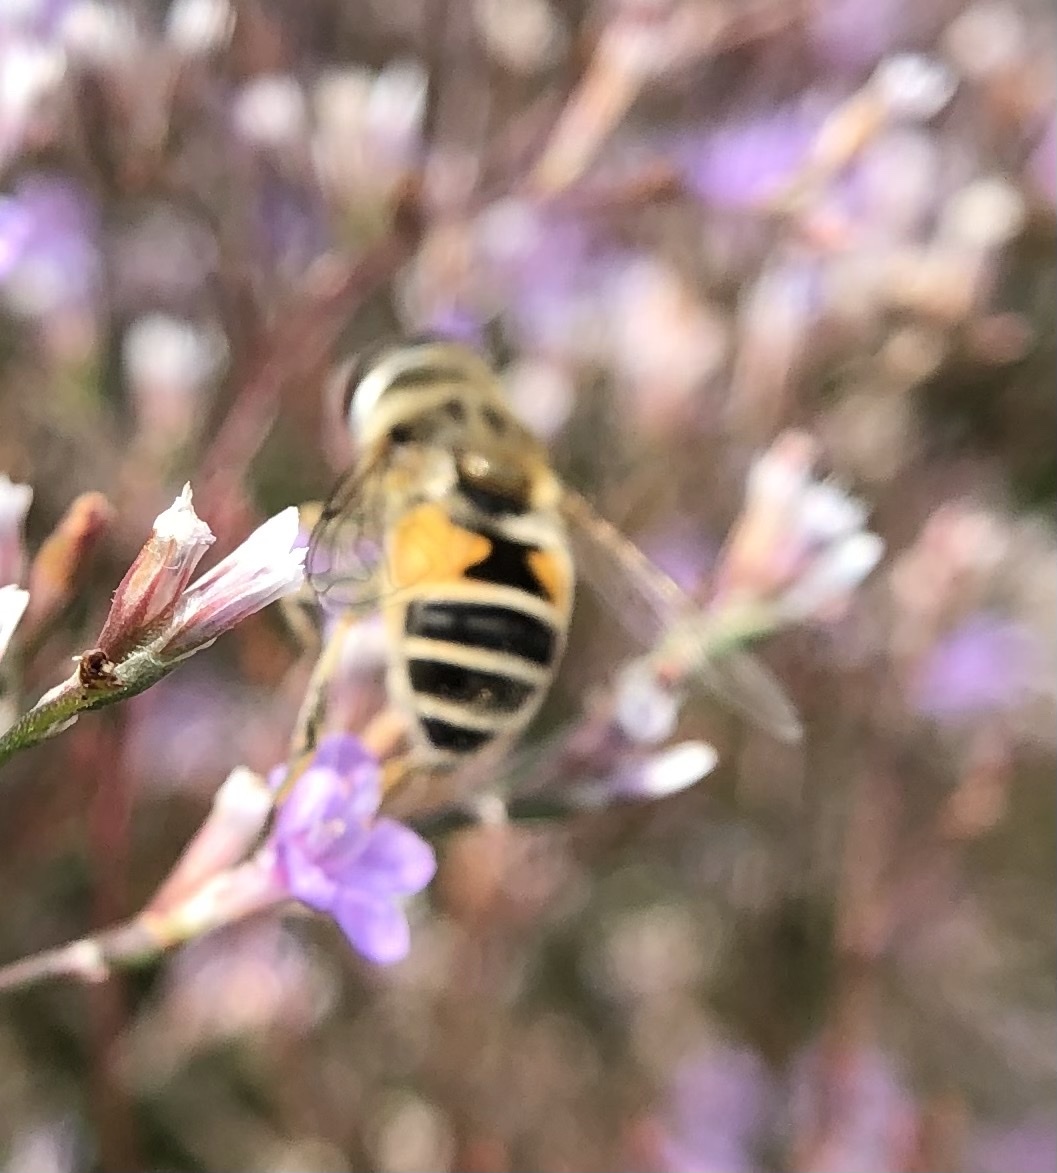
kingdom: Animalia
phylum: Arthropoda
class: Insecta
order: Diptera
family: Syrphidae
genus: Eristalis
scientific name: Eristalis arbustorum
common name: Hover fly
